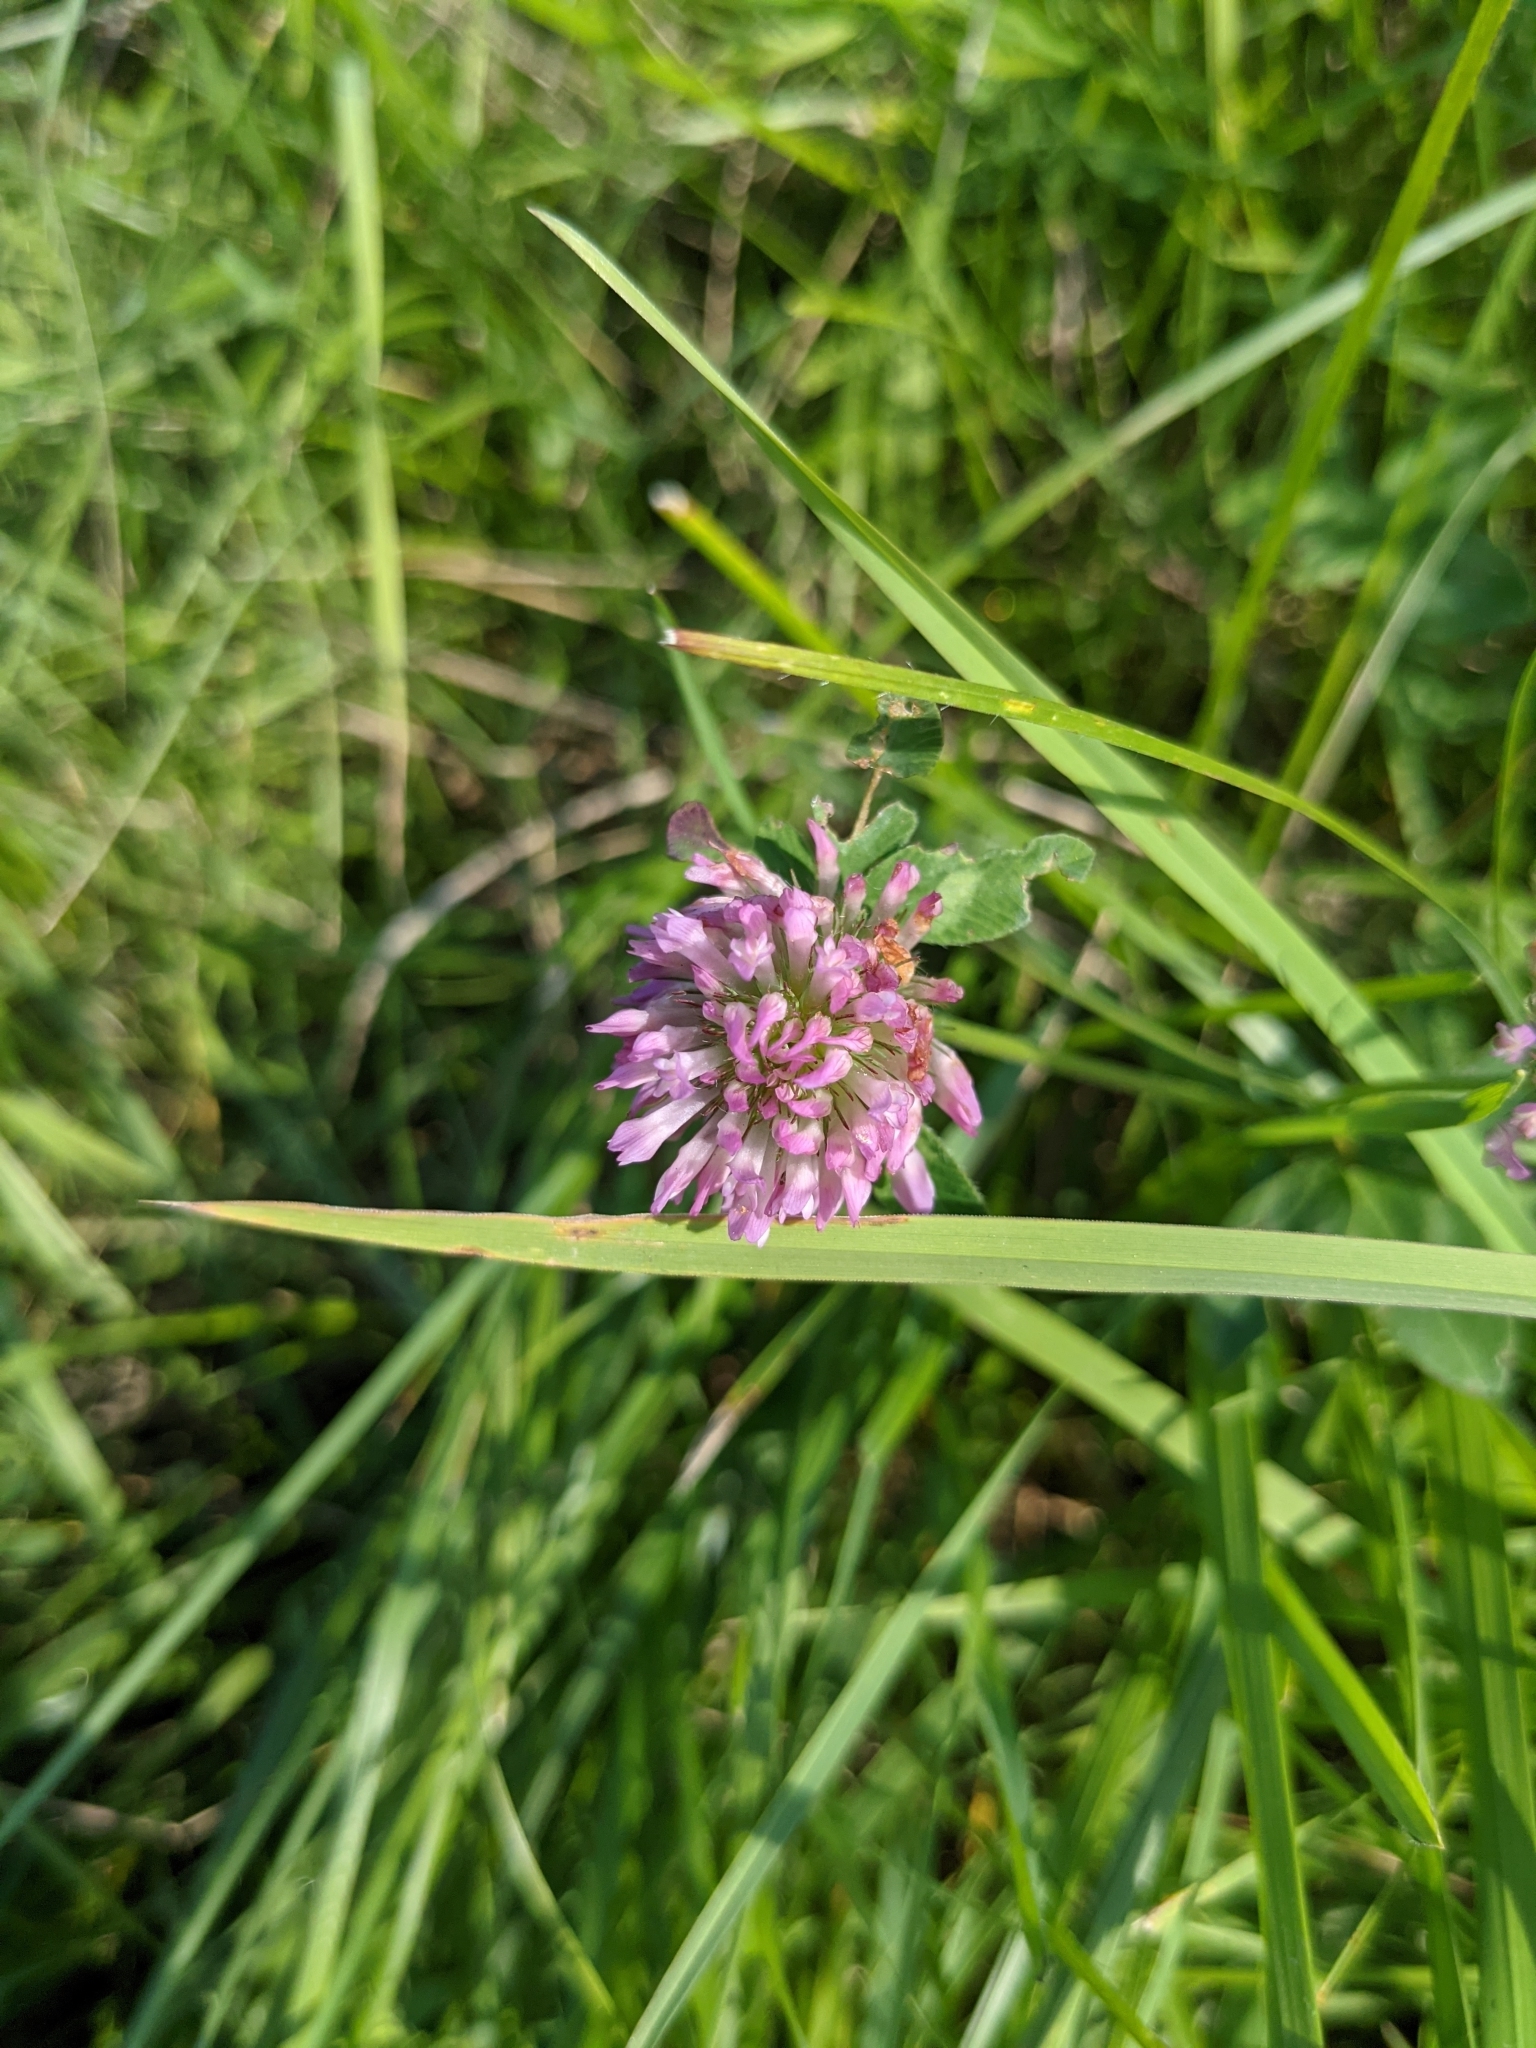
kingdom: Plantae
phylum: Tracheophyta
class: Magnoliopsida
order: Fabales
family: Fabaceae
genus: Trifolium
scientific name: Trifolium pratense
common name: Red clover
